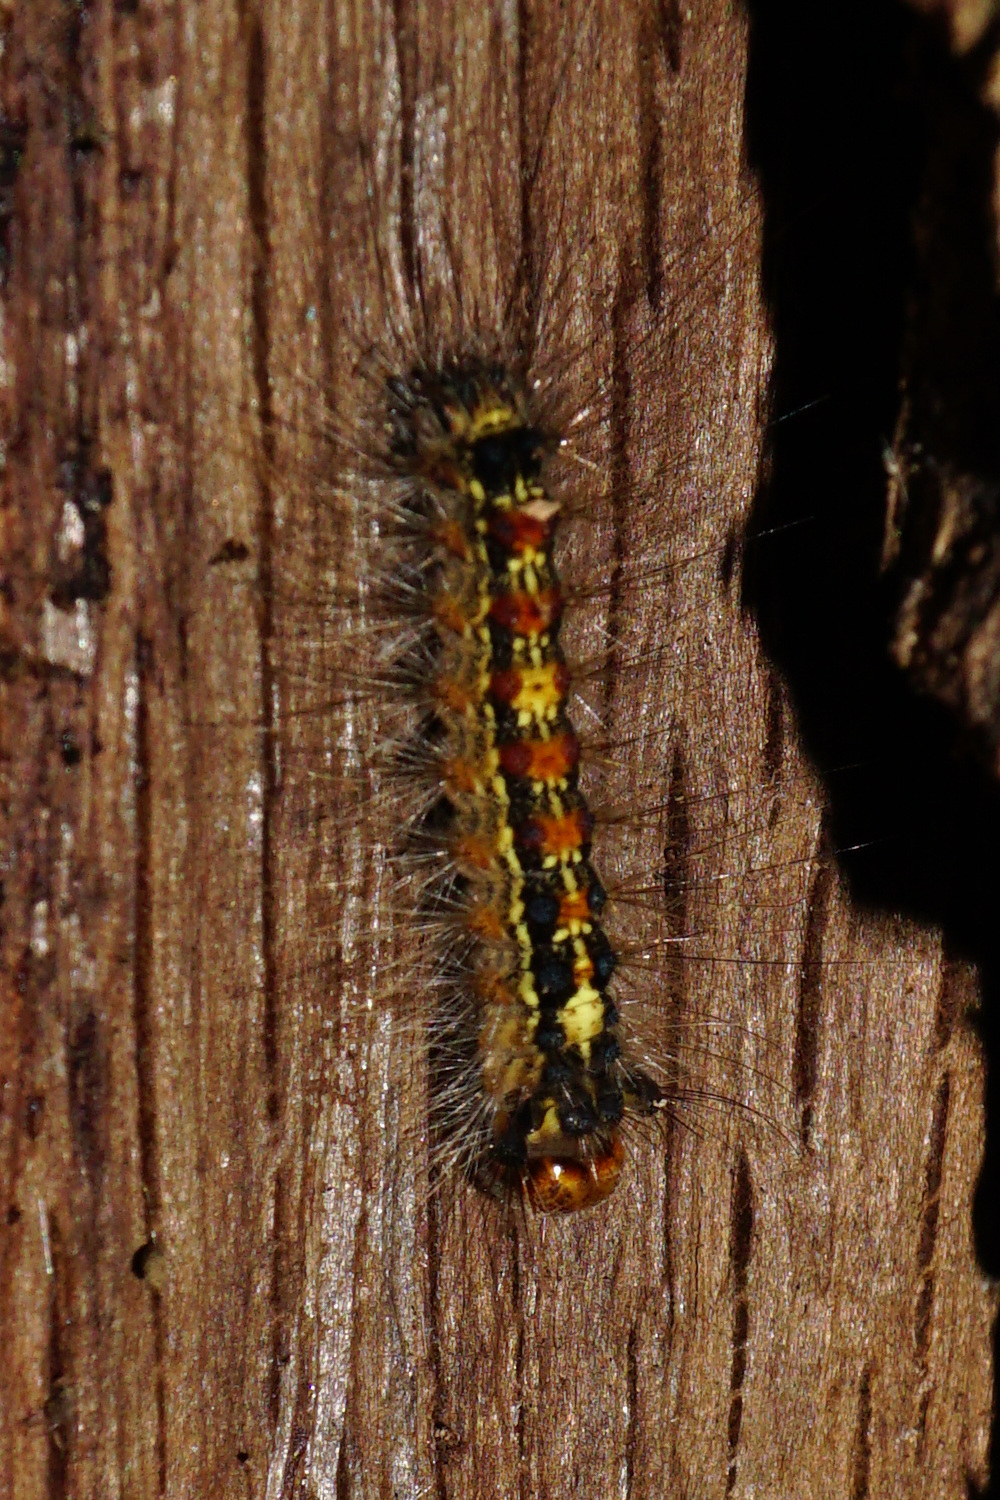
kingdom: Animalia
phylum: Arthropoda
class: Insecta
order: Lepidoptera
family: Erebidae
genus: Lymantria
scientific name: Lymantria dispar
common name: Gypsy moth
